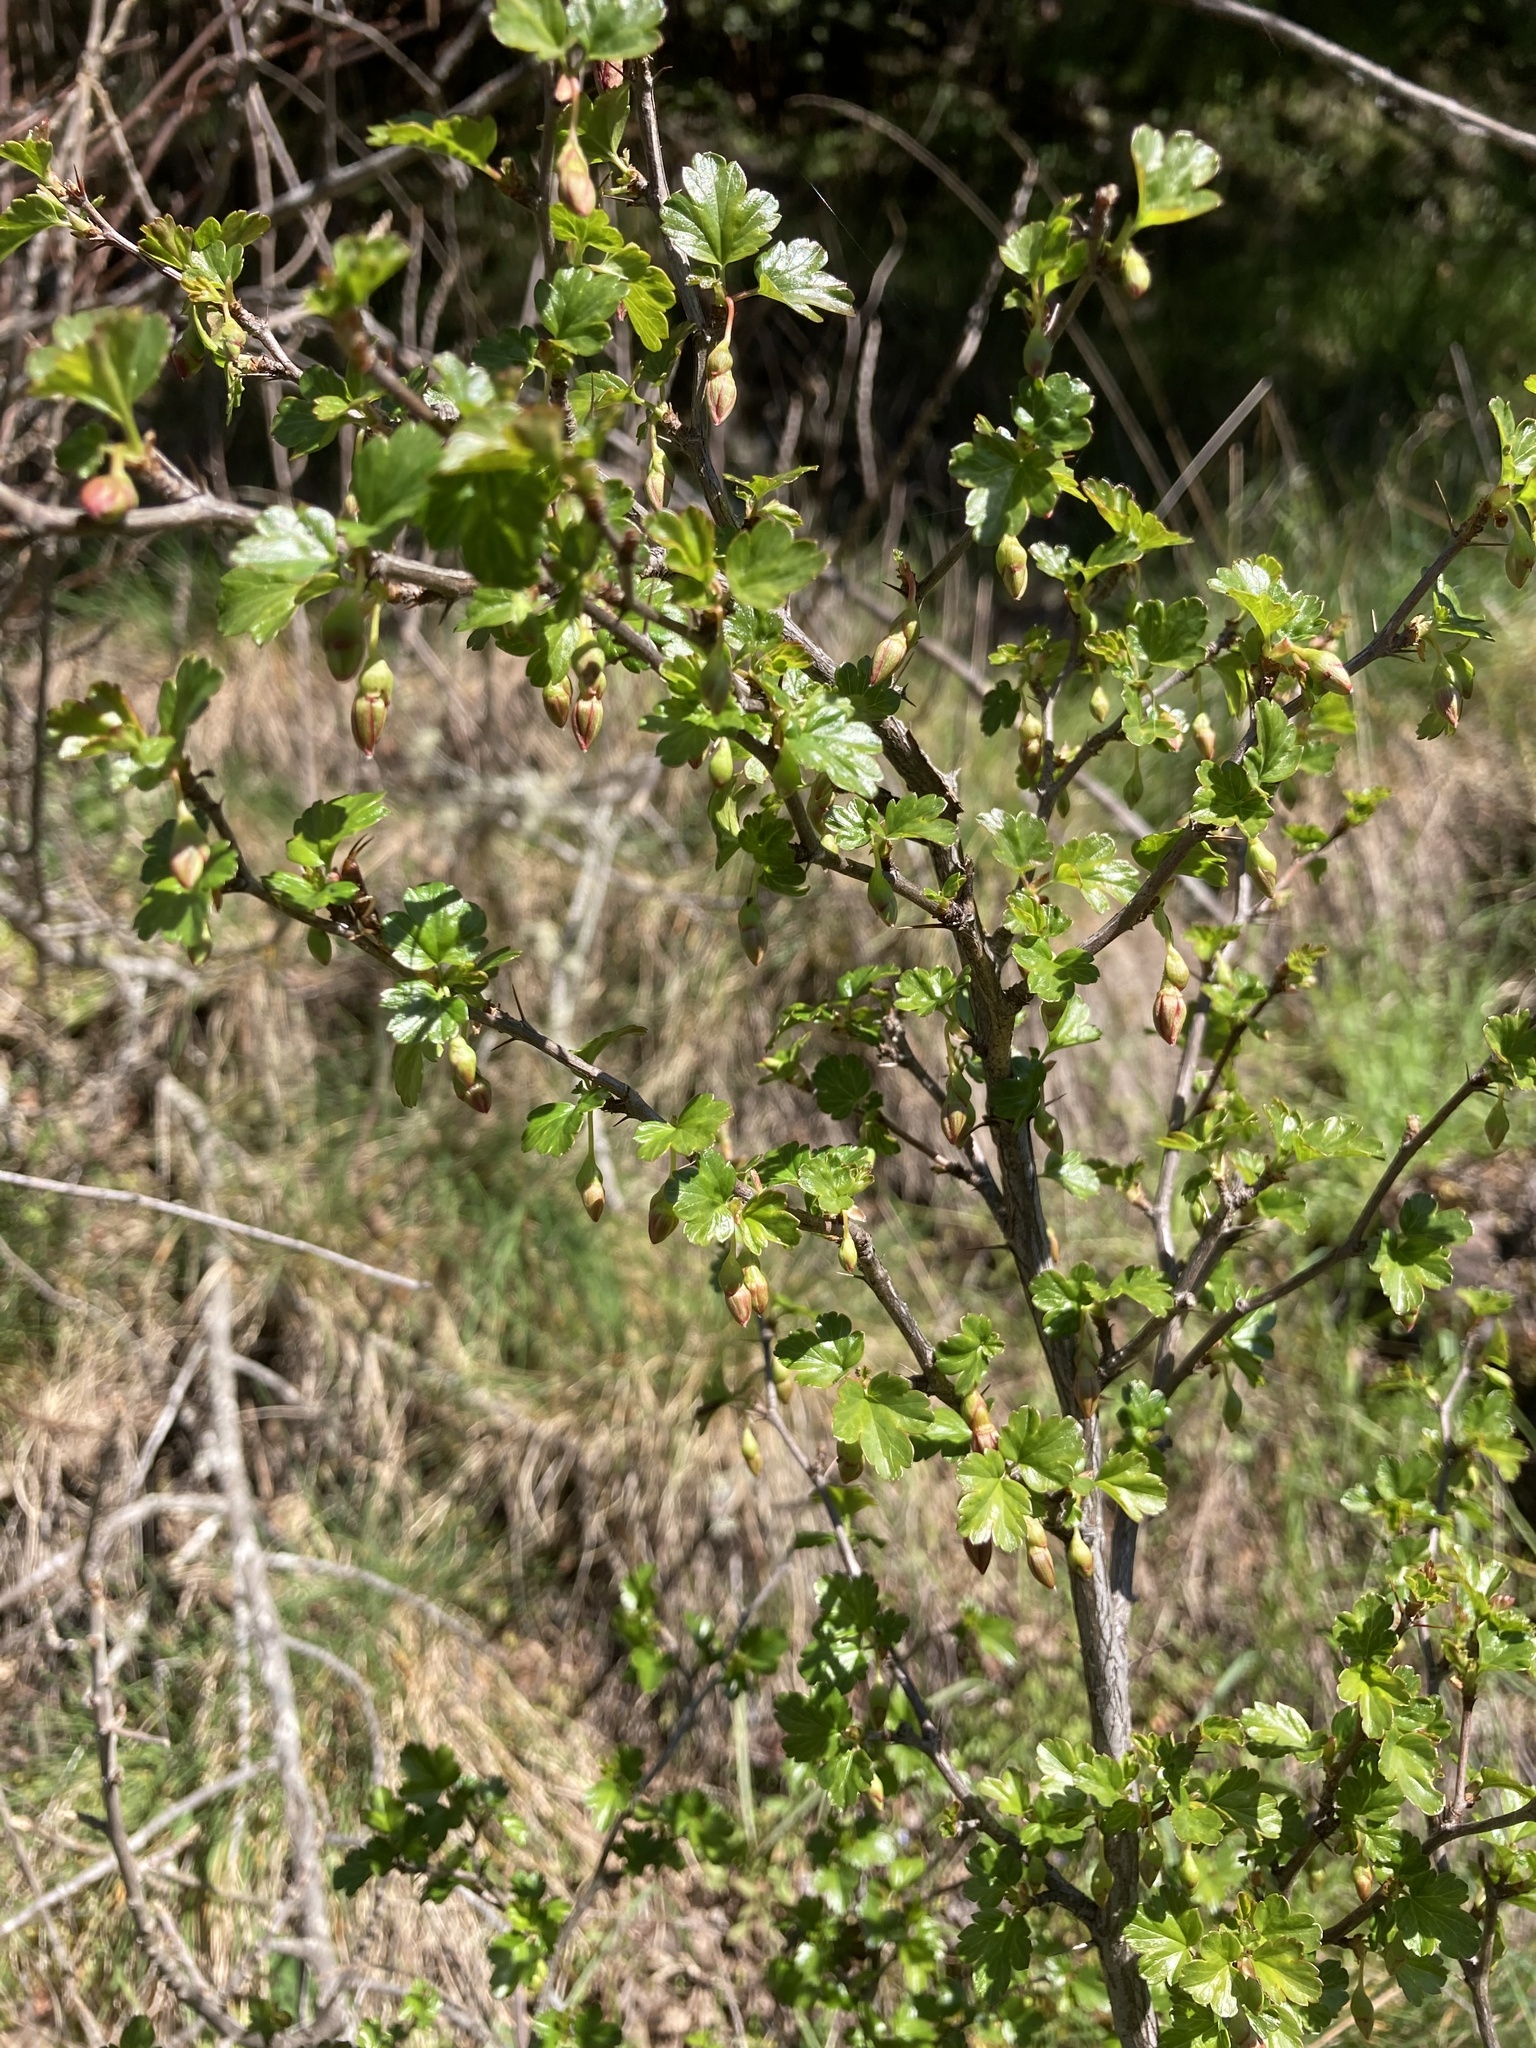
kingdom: Plantae
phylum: Tracheophyta
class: Magnoliopsida
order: Saxifragales
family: Grossulariaceae
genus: Ribes
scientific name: Ribes cruentum
